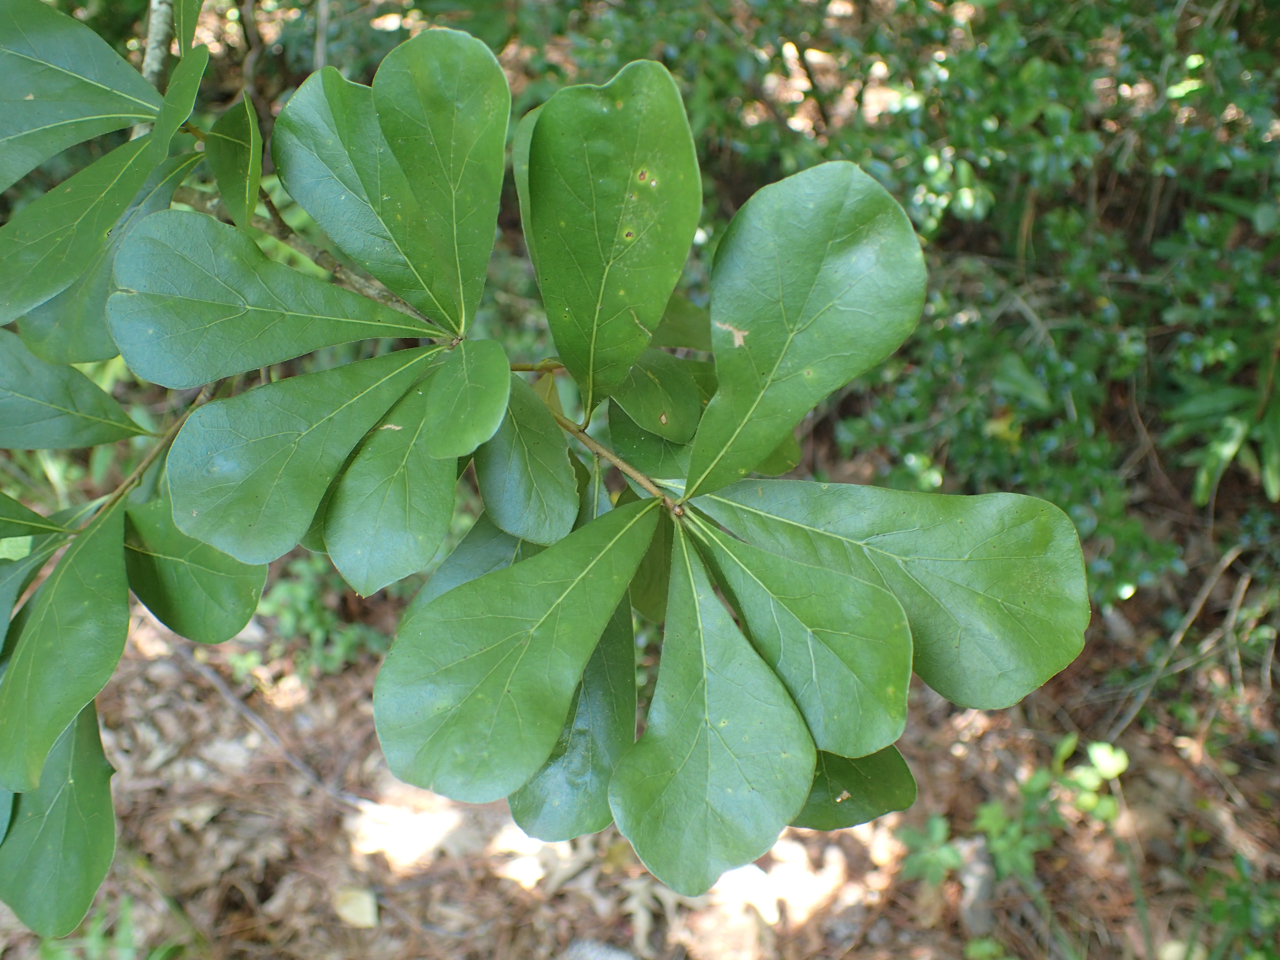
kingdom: Plantae
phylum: Tracheophyta
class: Magnoliopsida
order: Fagales
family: Fagaceae
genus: Quercus
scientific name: Quercus nigra
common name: Water oak
